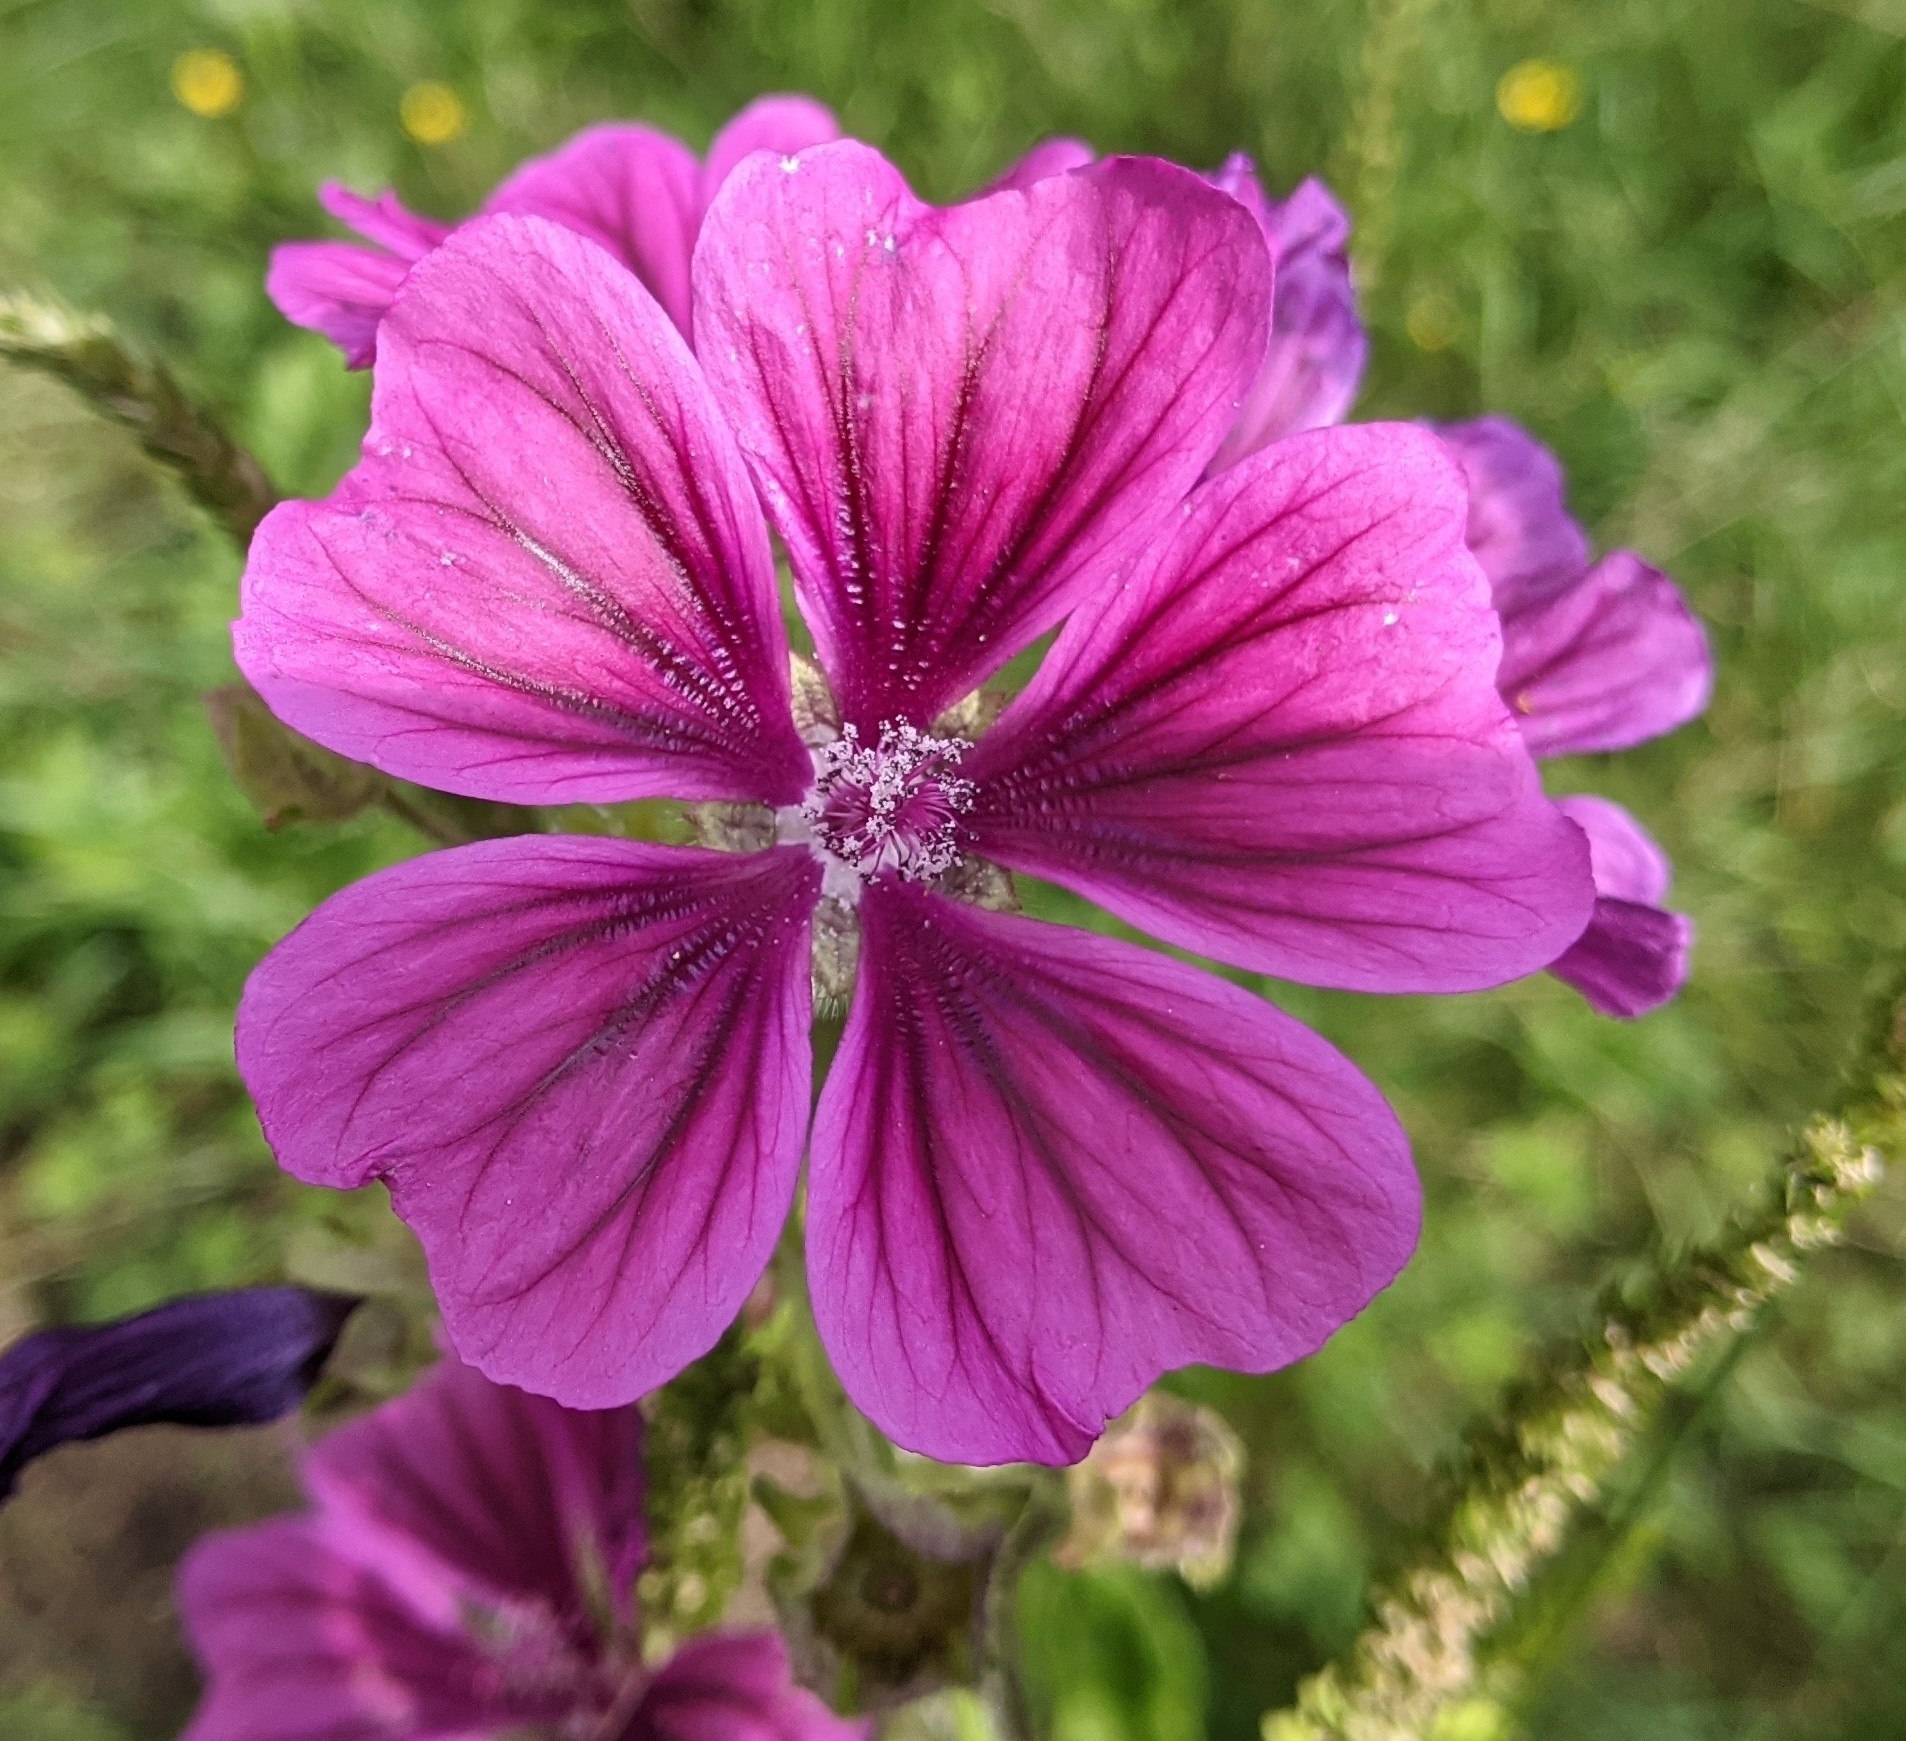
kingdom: Plantae
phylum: Tracheophyta
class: Magnoliopsida
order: Malvales
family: Malvaceae
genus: Malva
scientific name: Malva sylvestris
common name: Common mallow
